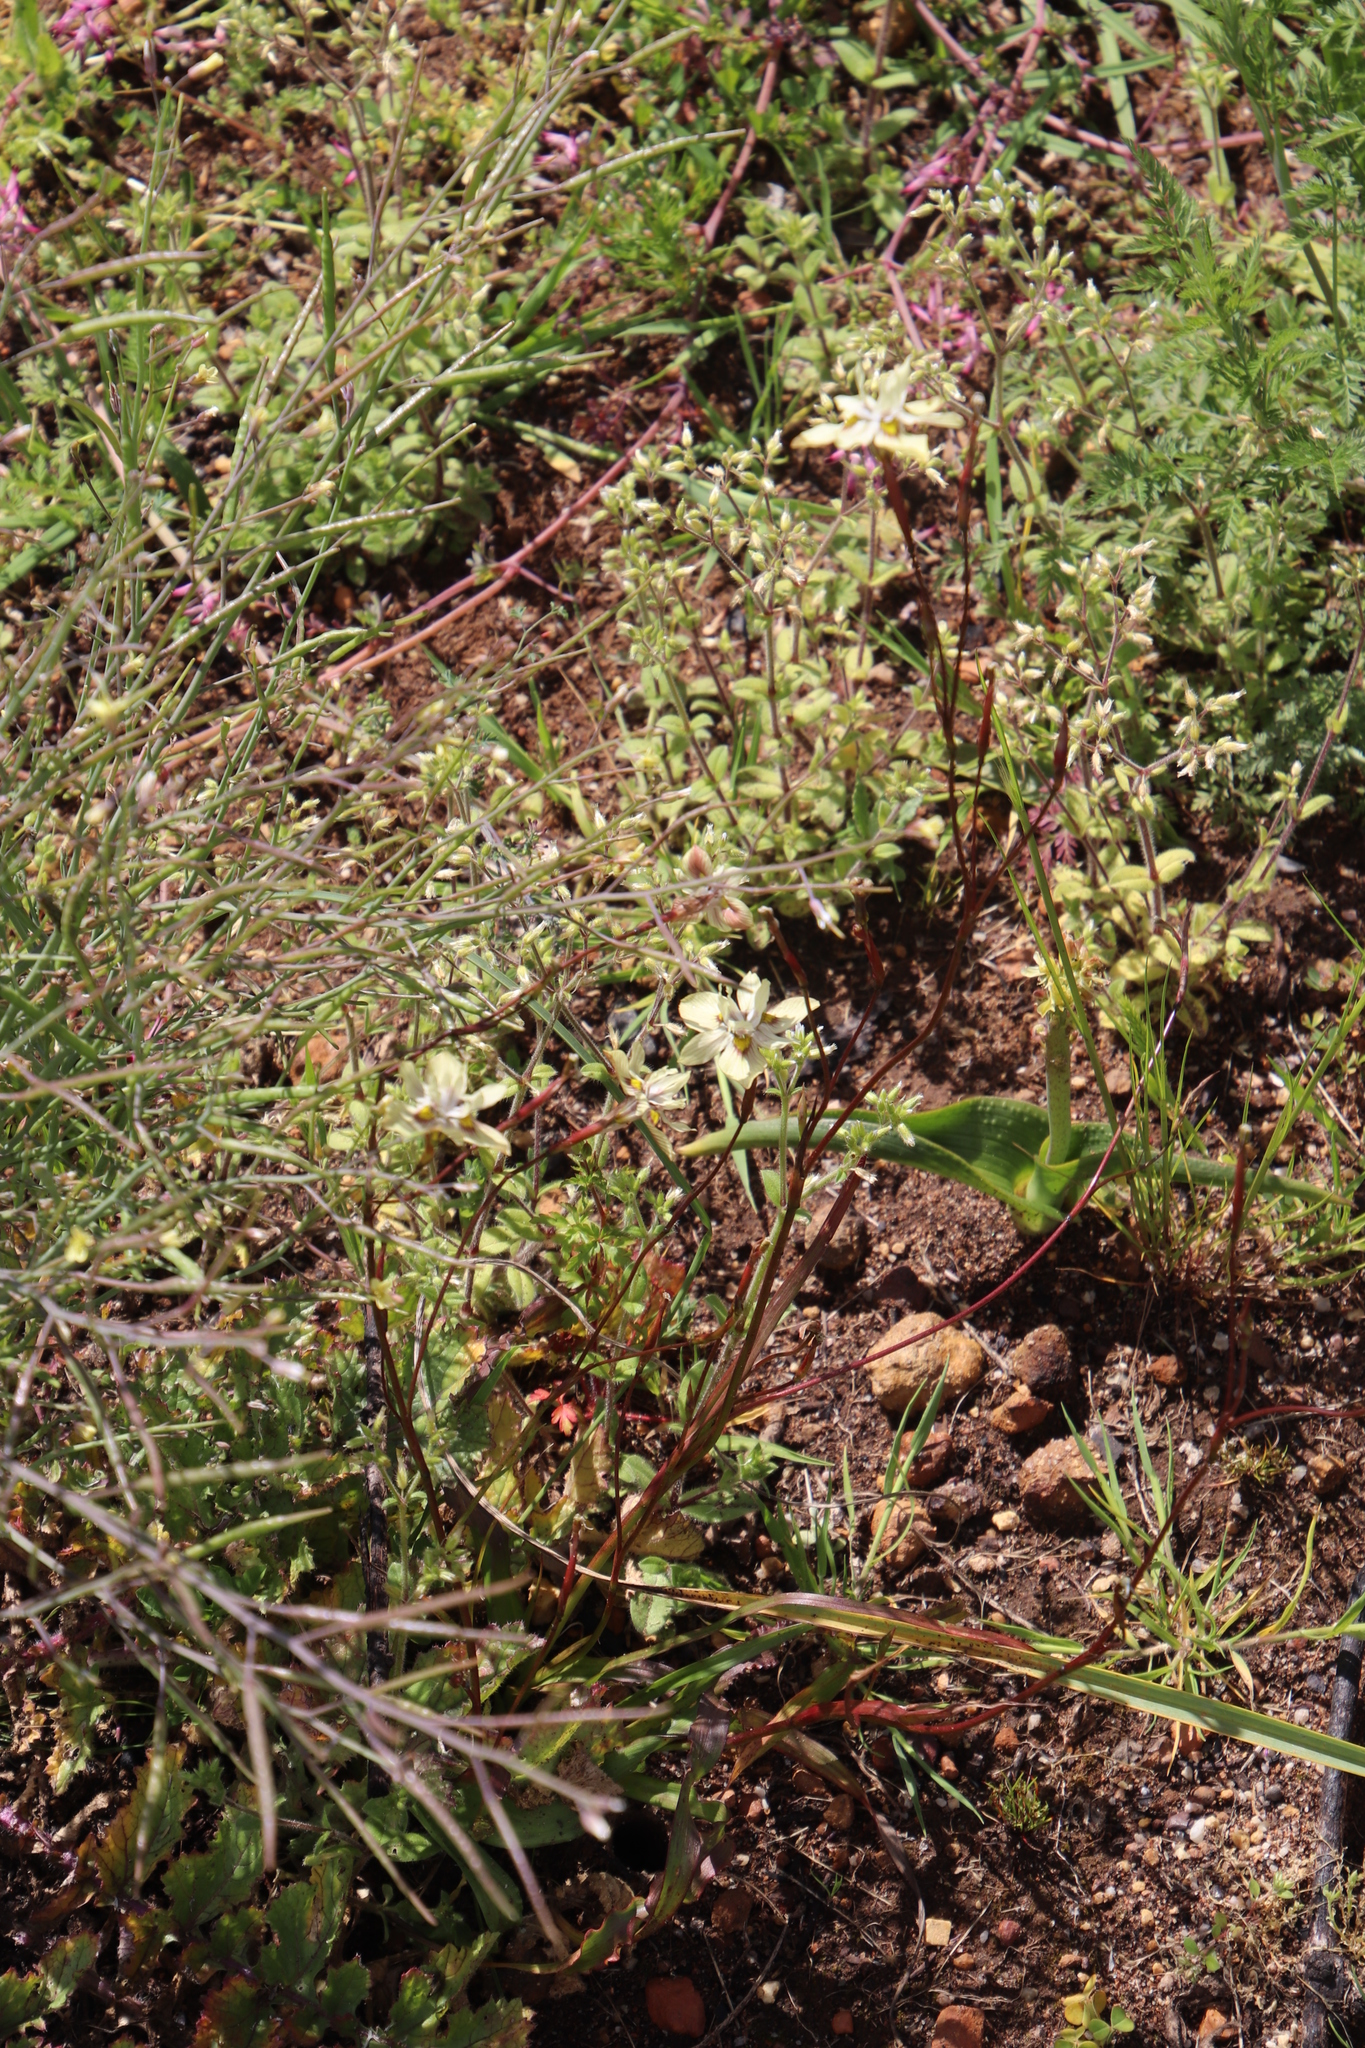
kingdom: Plantae
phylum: Tracheophyta
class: Liliopsida
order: Asparagales
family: Iridaceae
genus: Moraea
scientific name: Moraea gawleri
